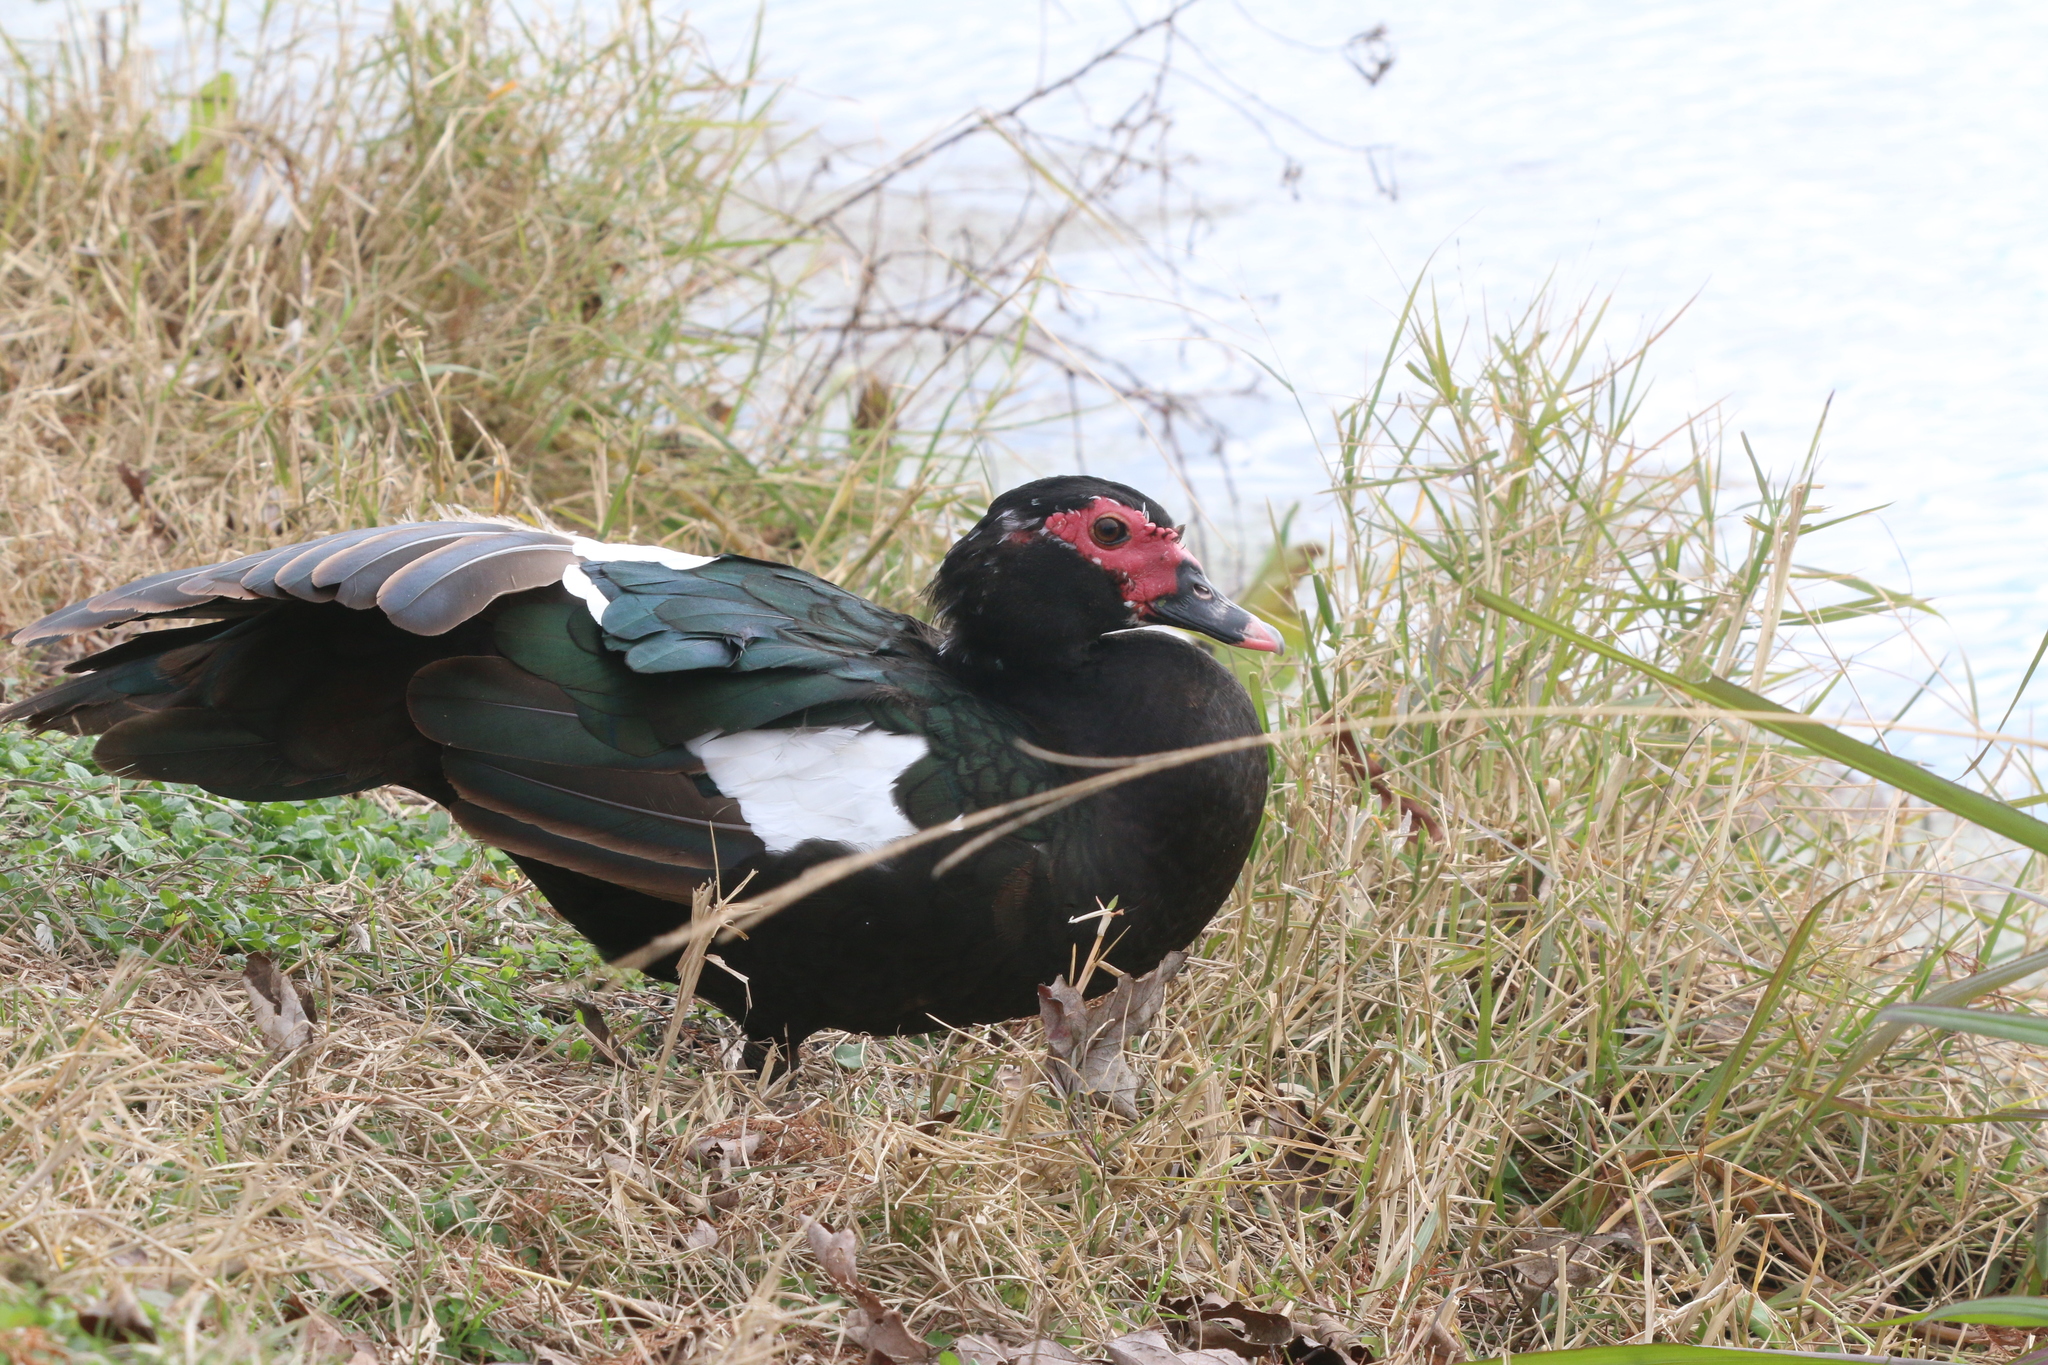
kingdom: Animalia
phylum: Chordata
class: Aves
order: Anseriformes
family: Anatidae
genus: Cairina
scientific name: Cairina moschata
